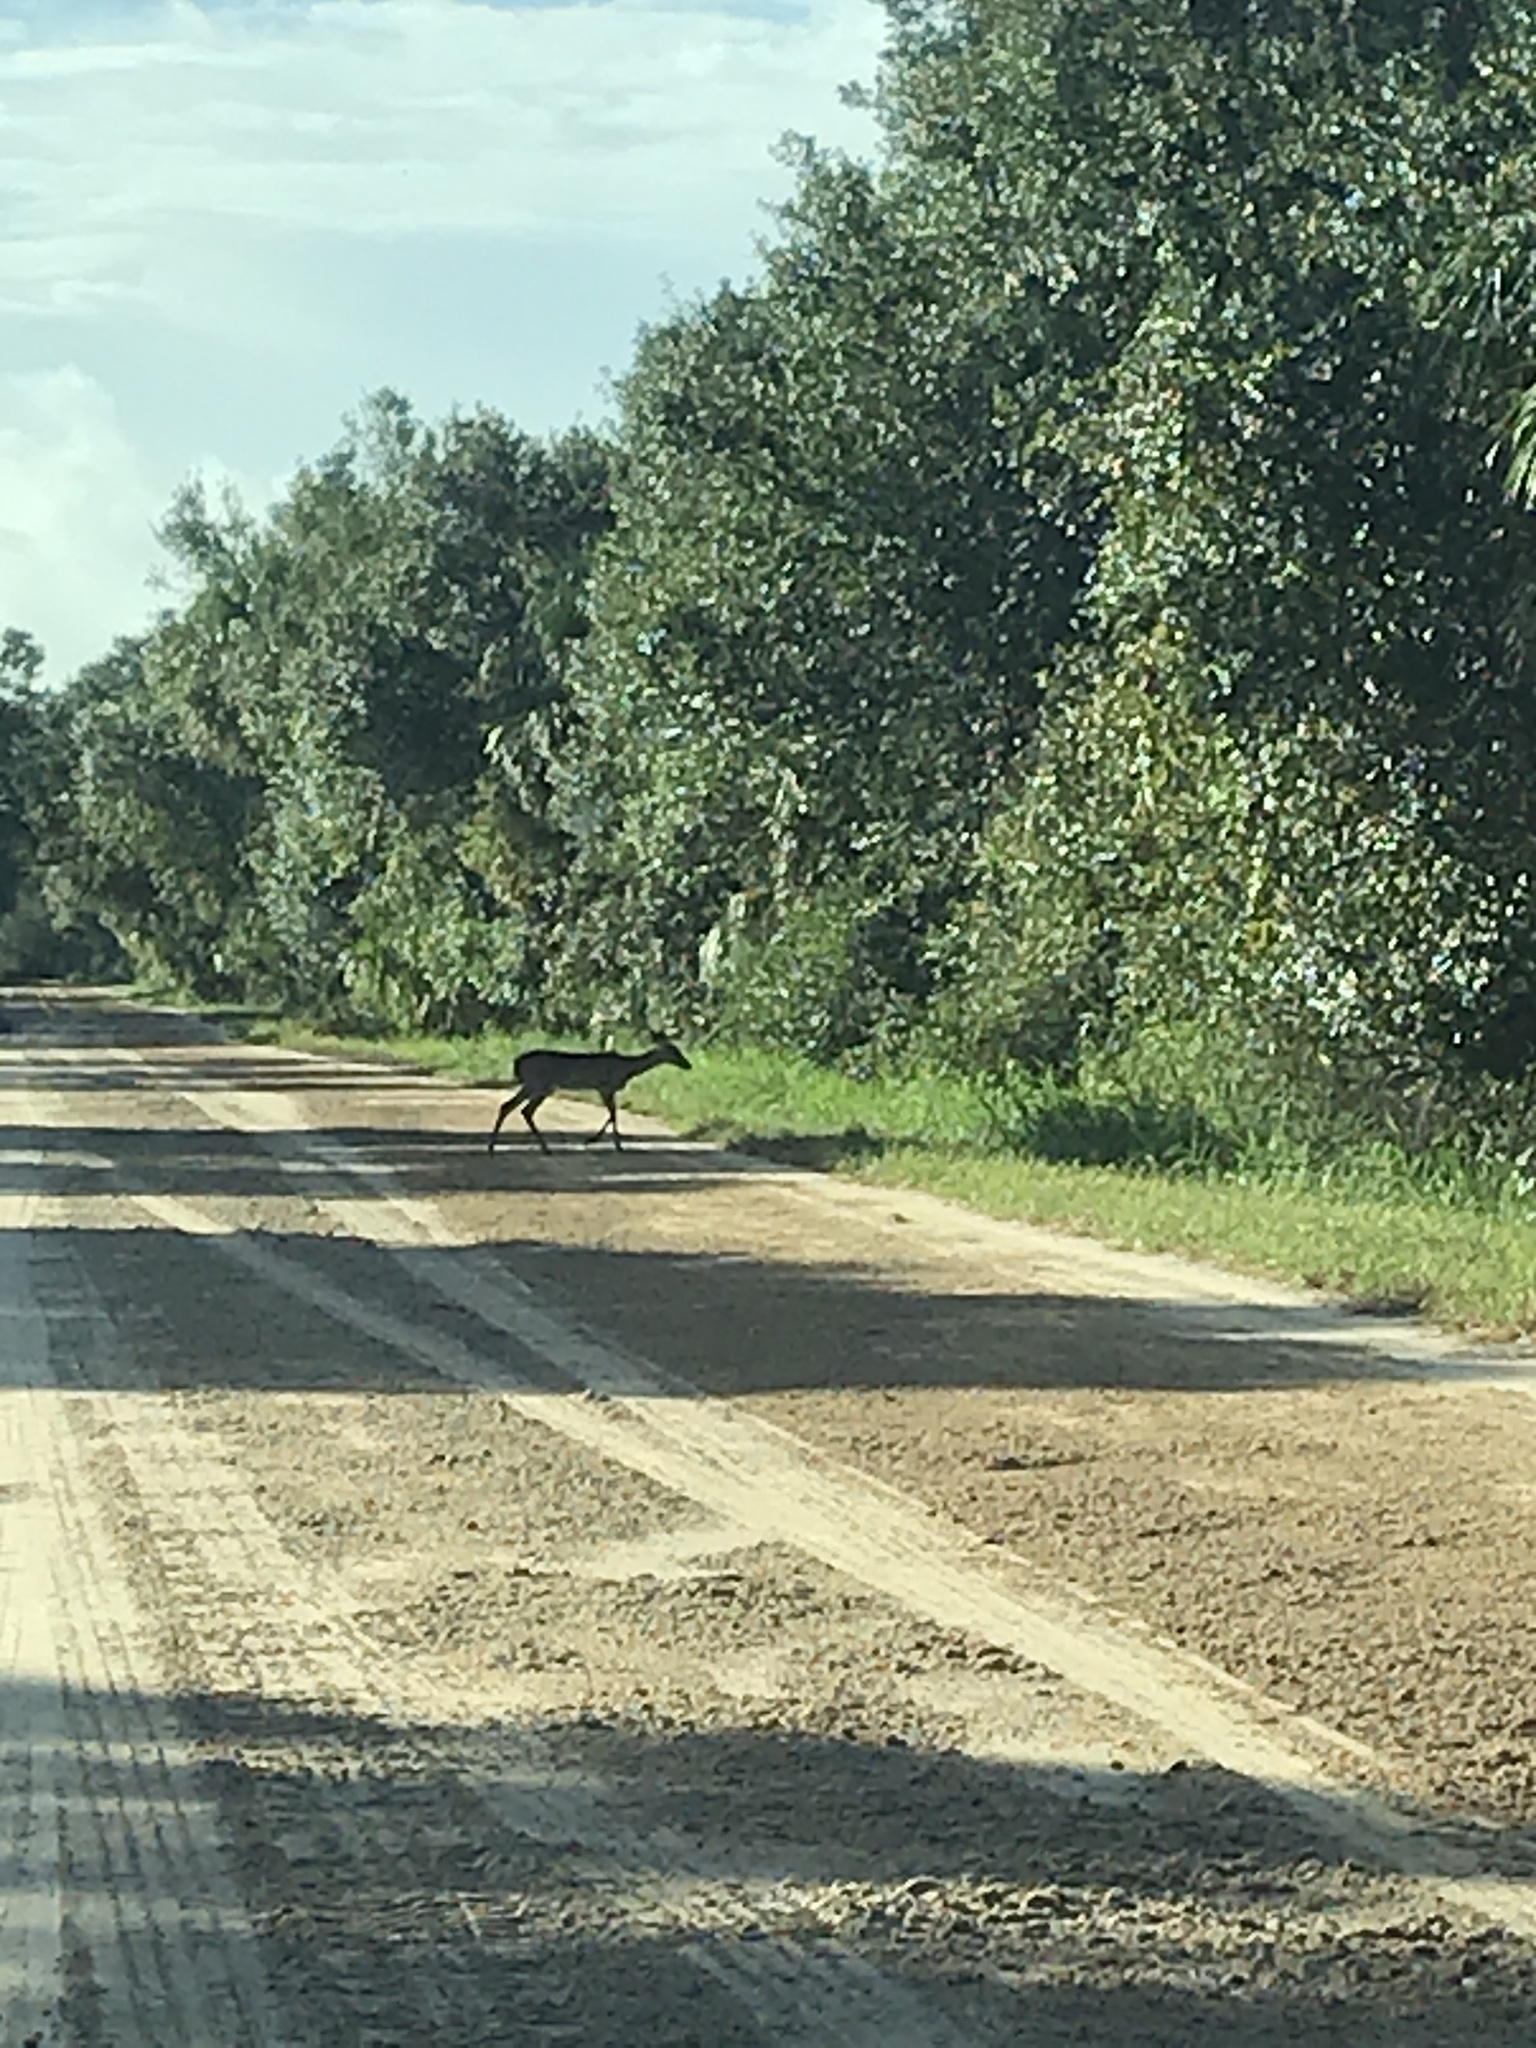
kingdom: Animalia
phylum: Chordata
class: Mammalia
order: Artiodactyla
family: Cervidae
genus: Odocoileus
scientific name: Odocoileus virginianus
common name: White-tailed deer
